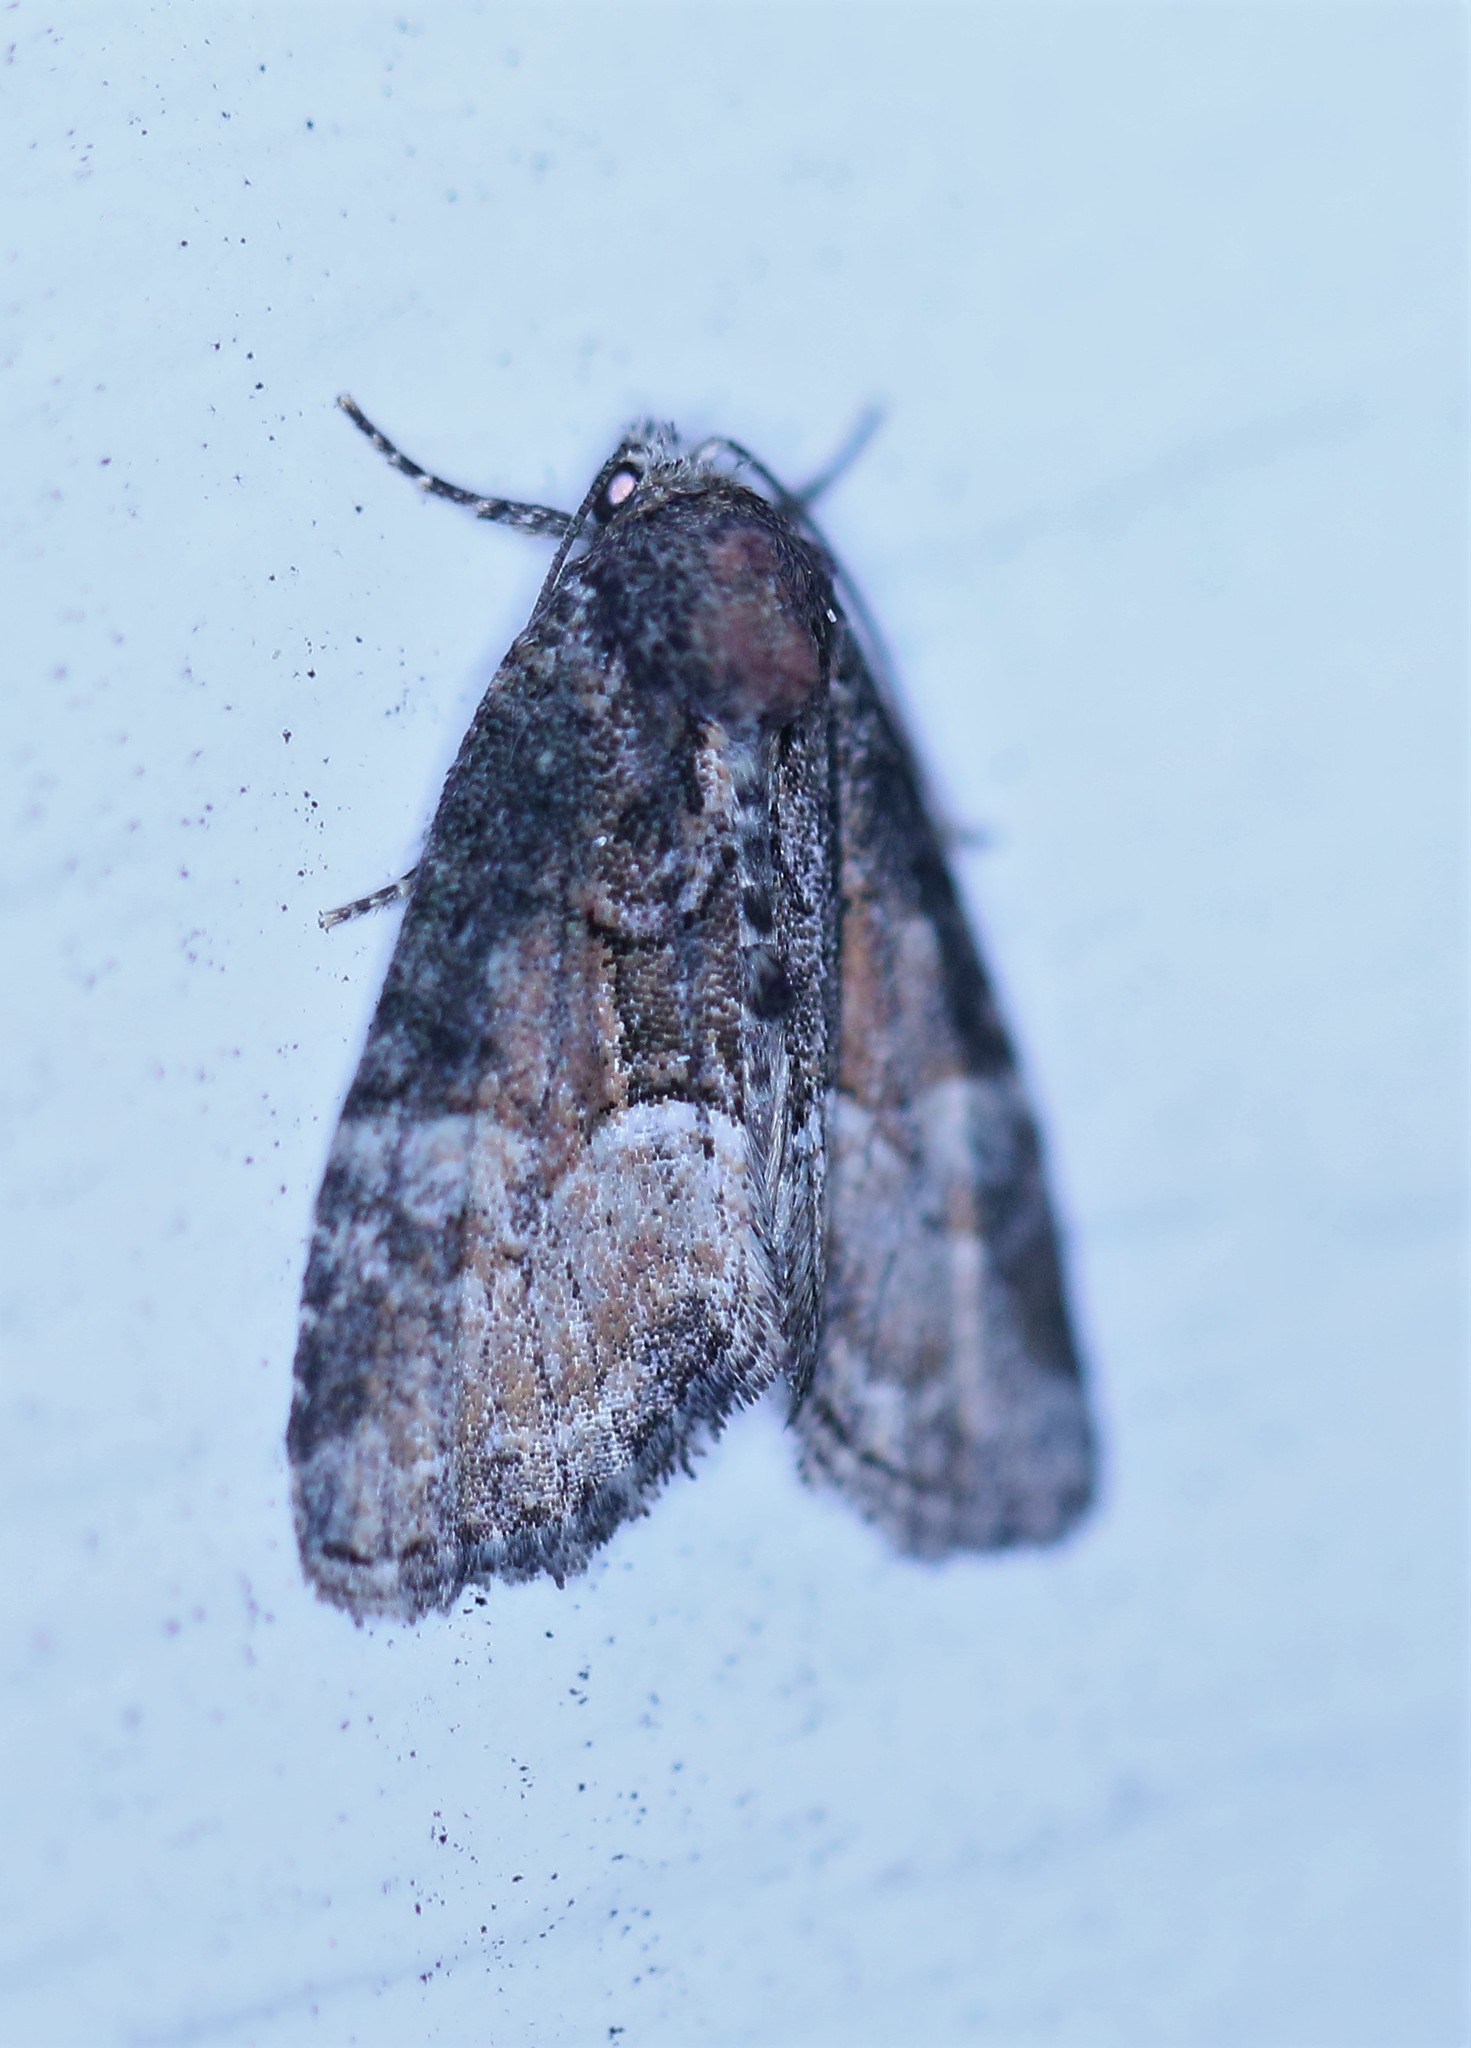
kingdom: Animalia
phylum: Arthropoda
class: Insecta
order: Lepidoptera
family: Noctuidae
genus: Neoligia
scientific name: Neoligia subjuncta
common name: Connected brocade
